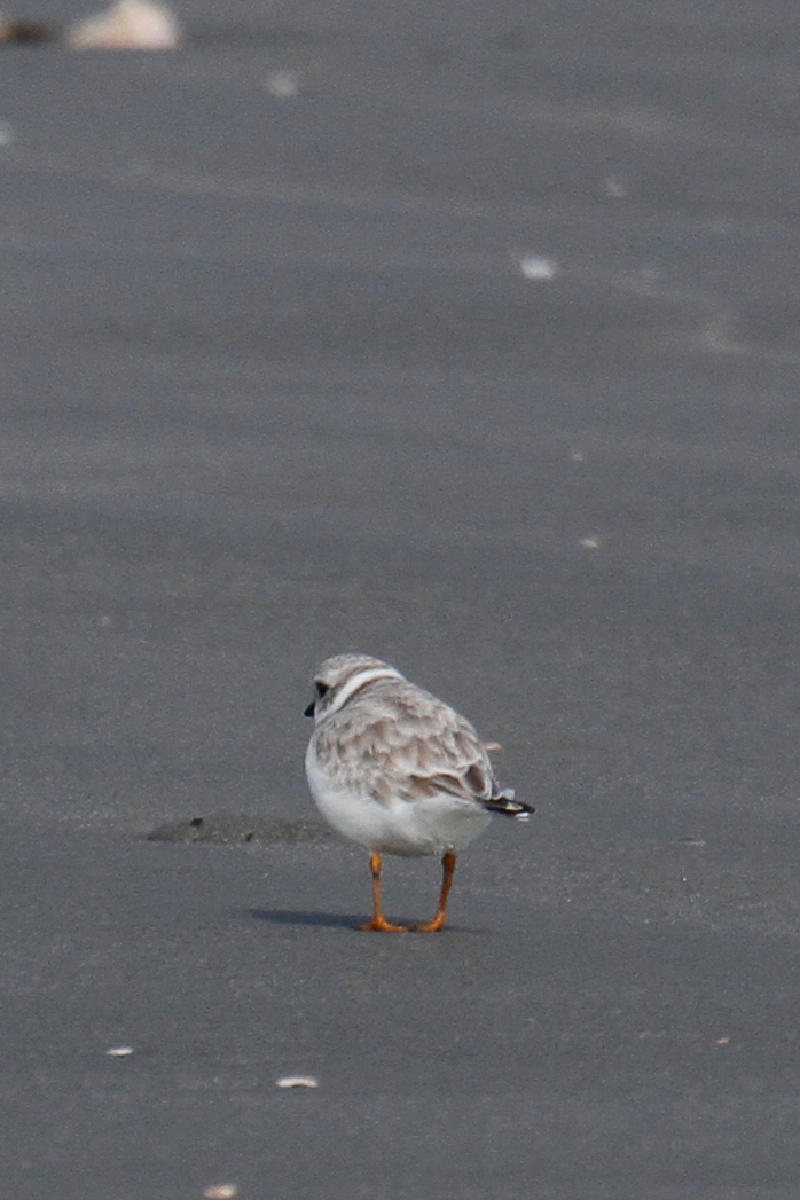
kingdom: Animalia
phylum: Chordata
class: Aves
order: Charadriiformes
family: Charadriidae
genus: Charadrius
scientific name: Charadrius melodus
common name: Piping plover
